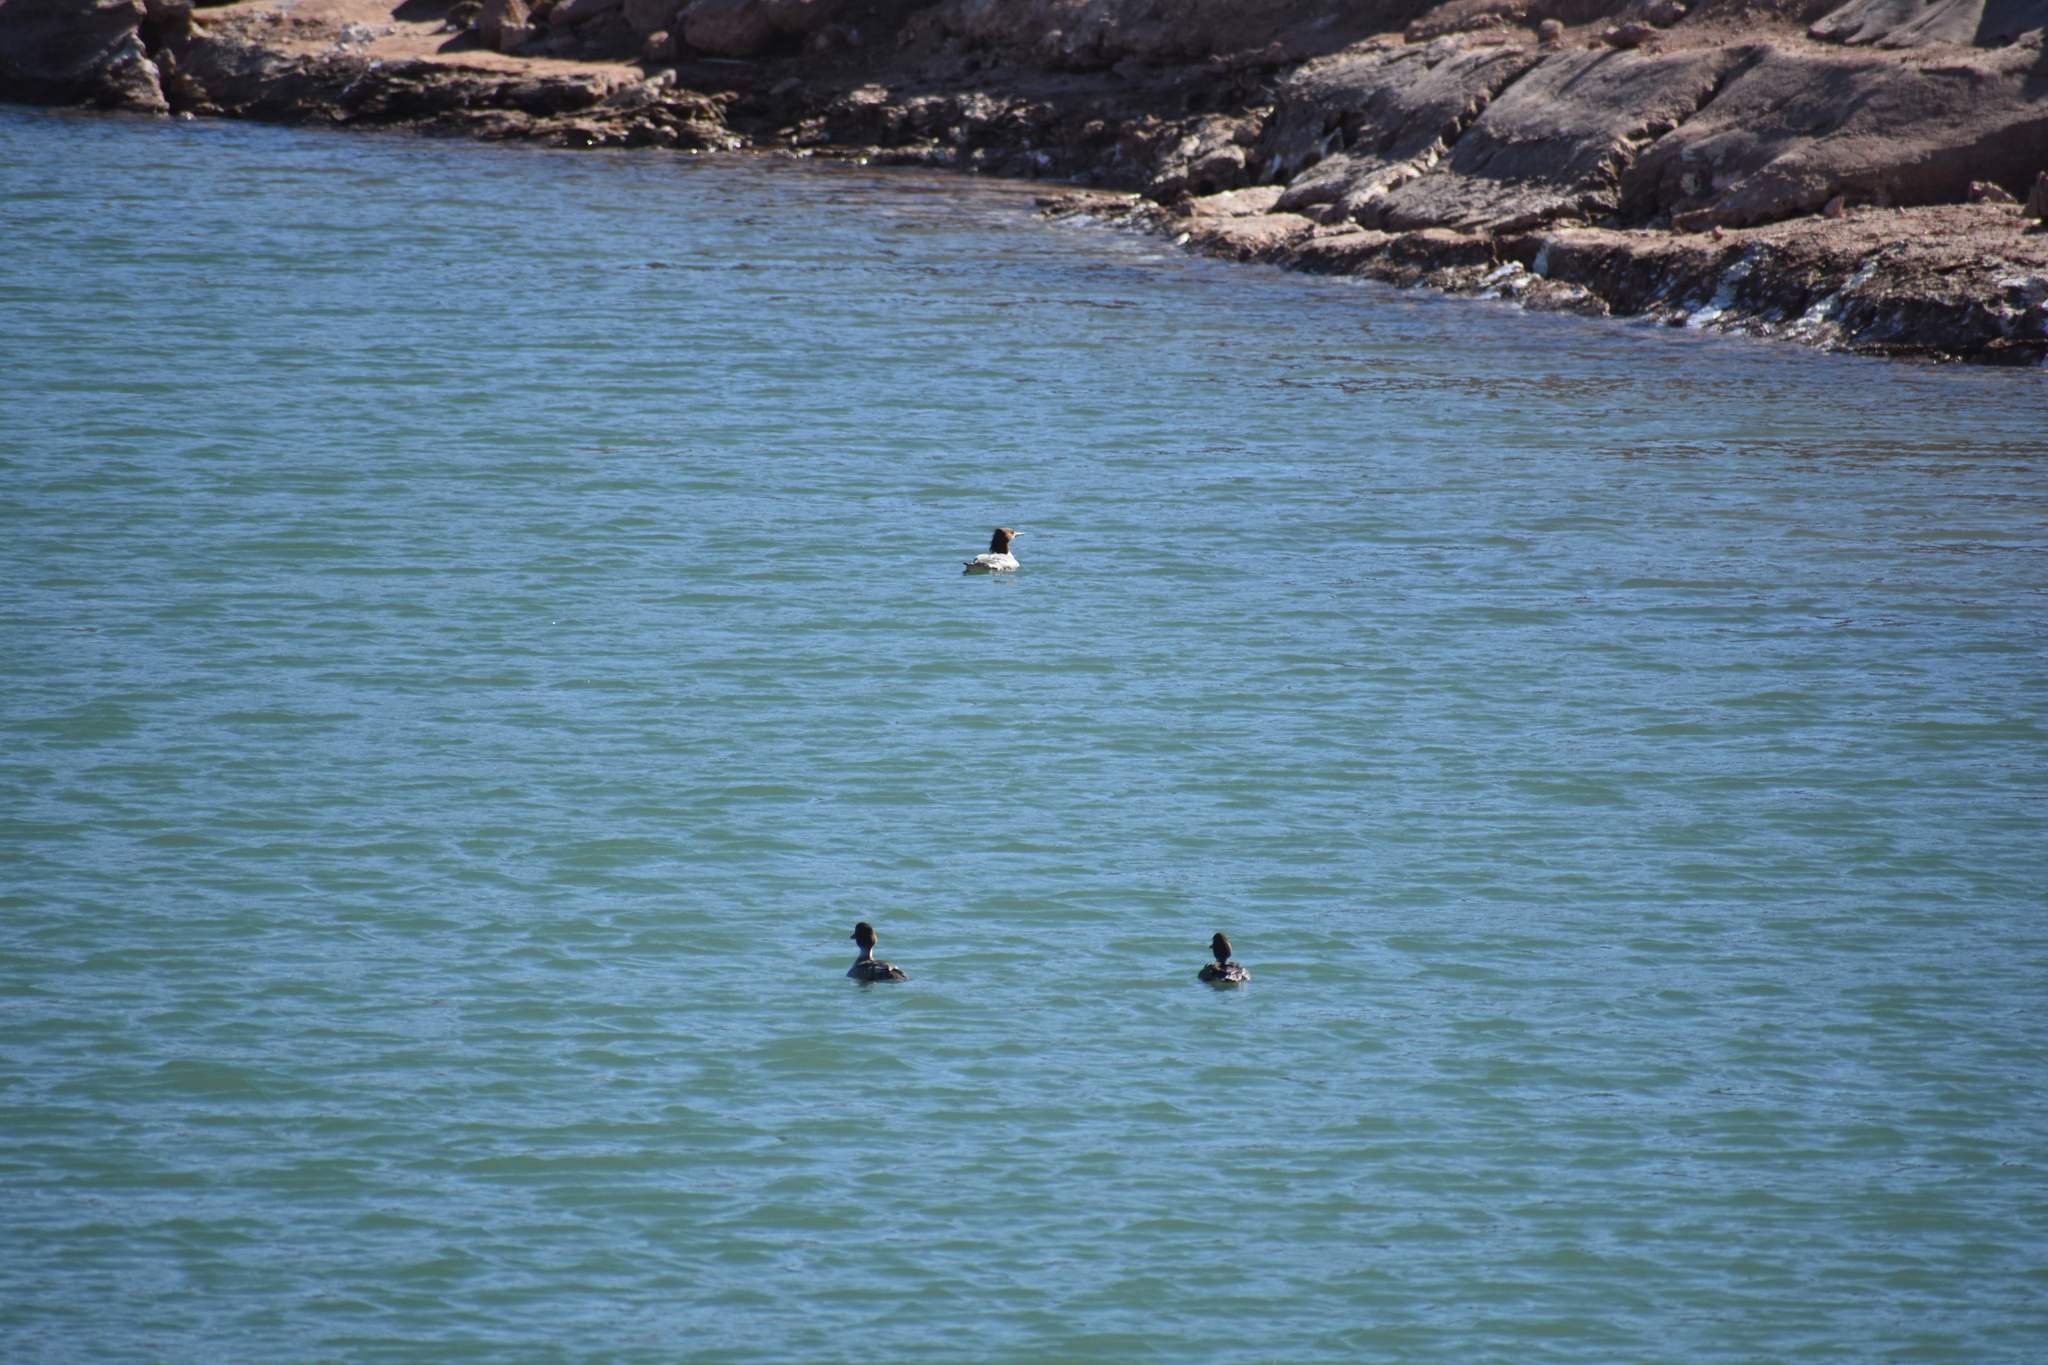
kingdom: Animalia
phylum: Chordata
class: Aves
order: Anseriformes
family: Anatidae
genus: Mergus
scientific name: Mergus merganser
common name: Common merganser
